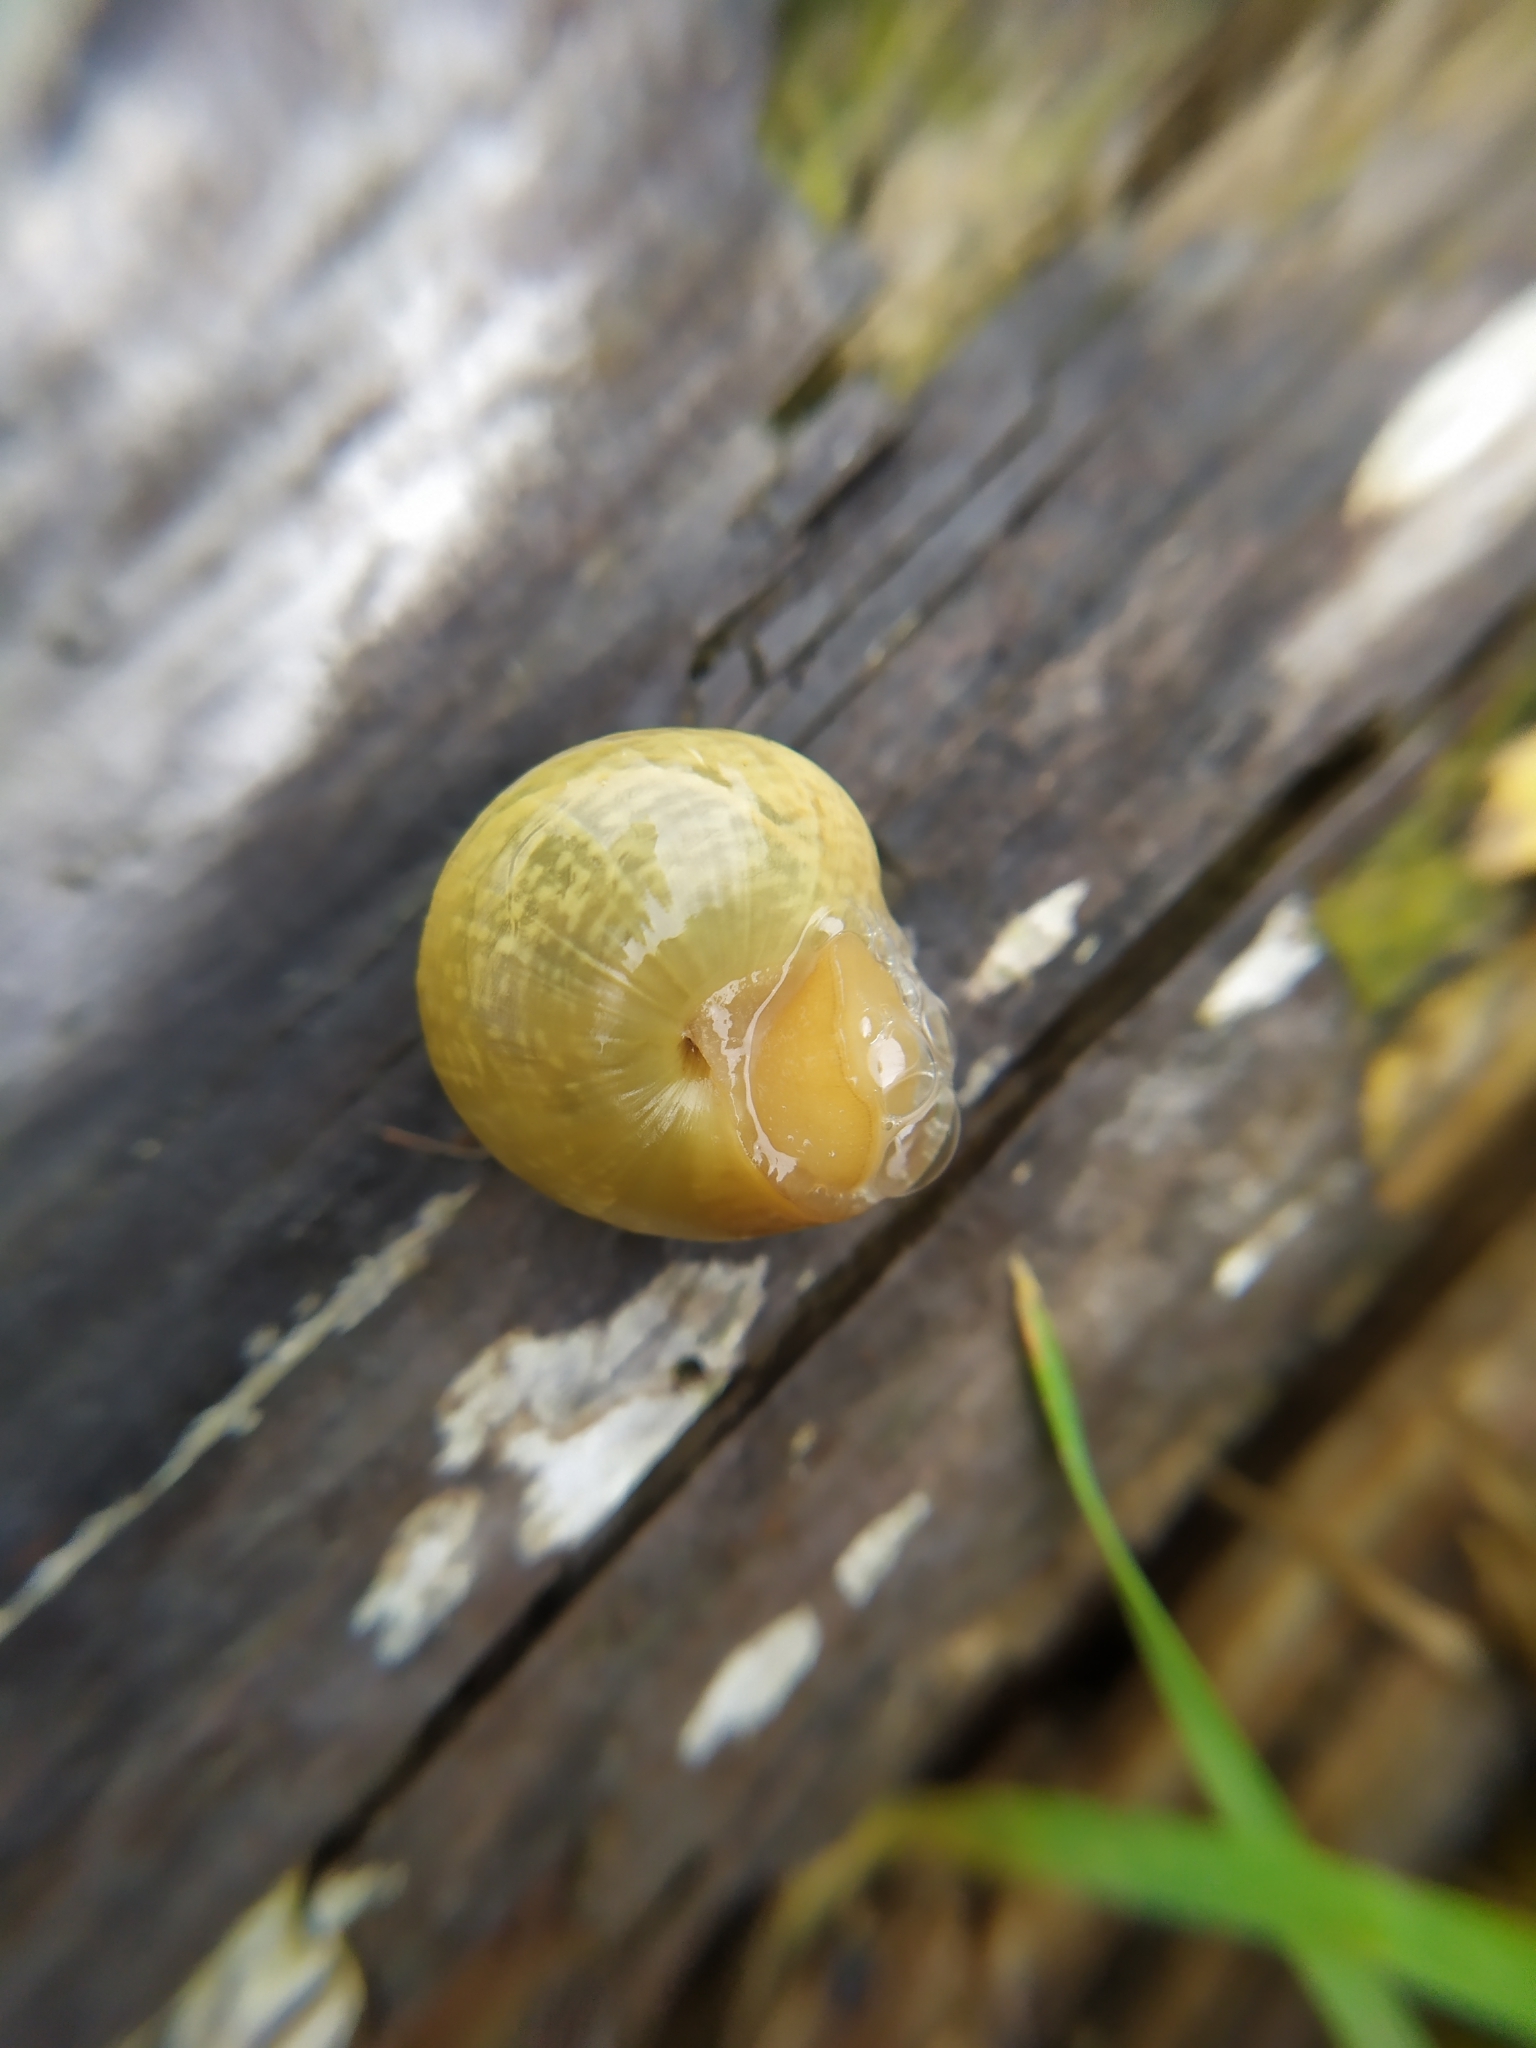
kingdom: Animalia
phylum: Mollusca
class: Gastropoda
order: Stylommatophora
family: Helicidae
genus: Arianta
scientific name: Arianta arbustorum
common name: Copse snail
